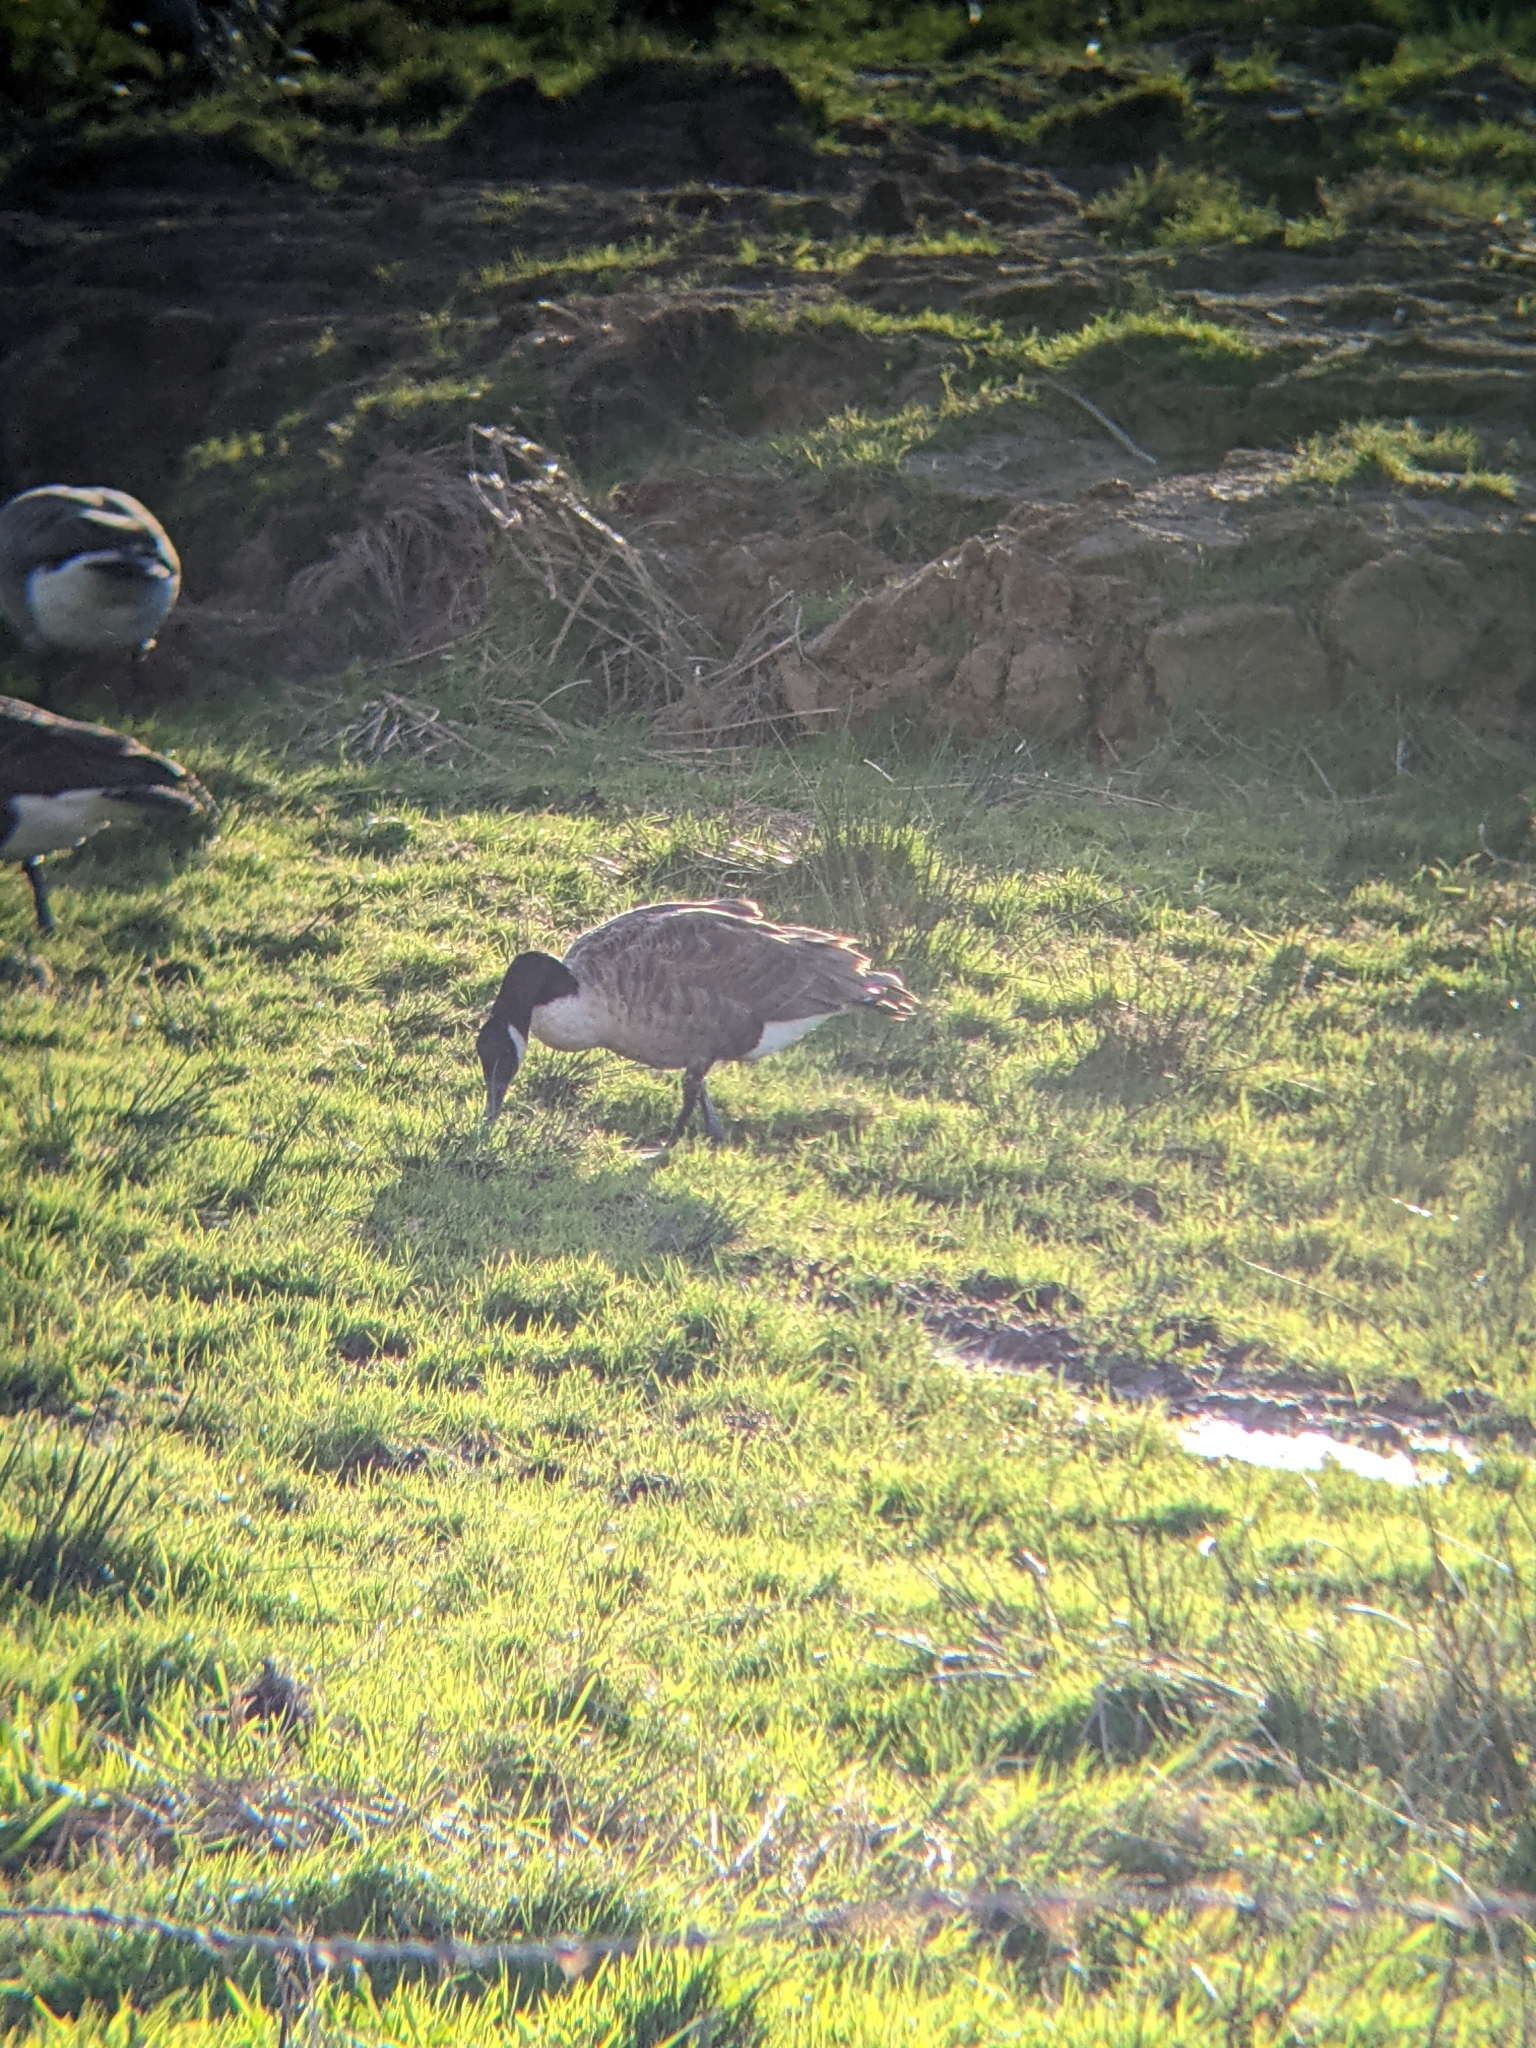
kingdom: Animalia
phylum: Chordata
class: Aves
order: Anseriformes
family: Anatidae
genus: Branta
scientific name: Branta canadensis
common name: Canada goose
